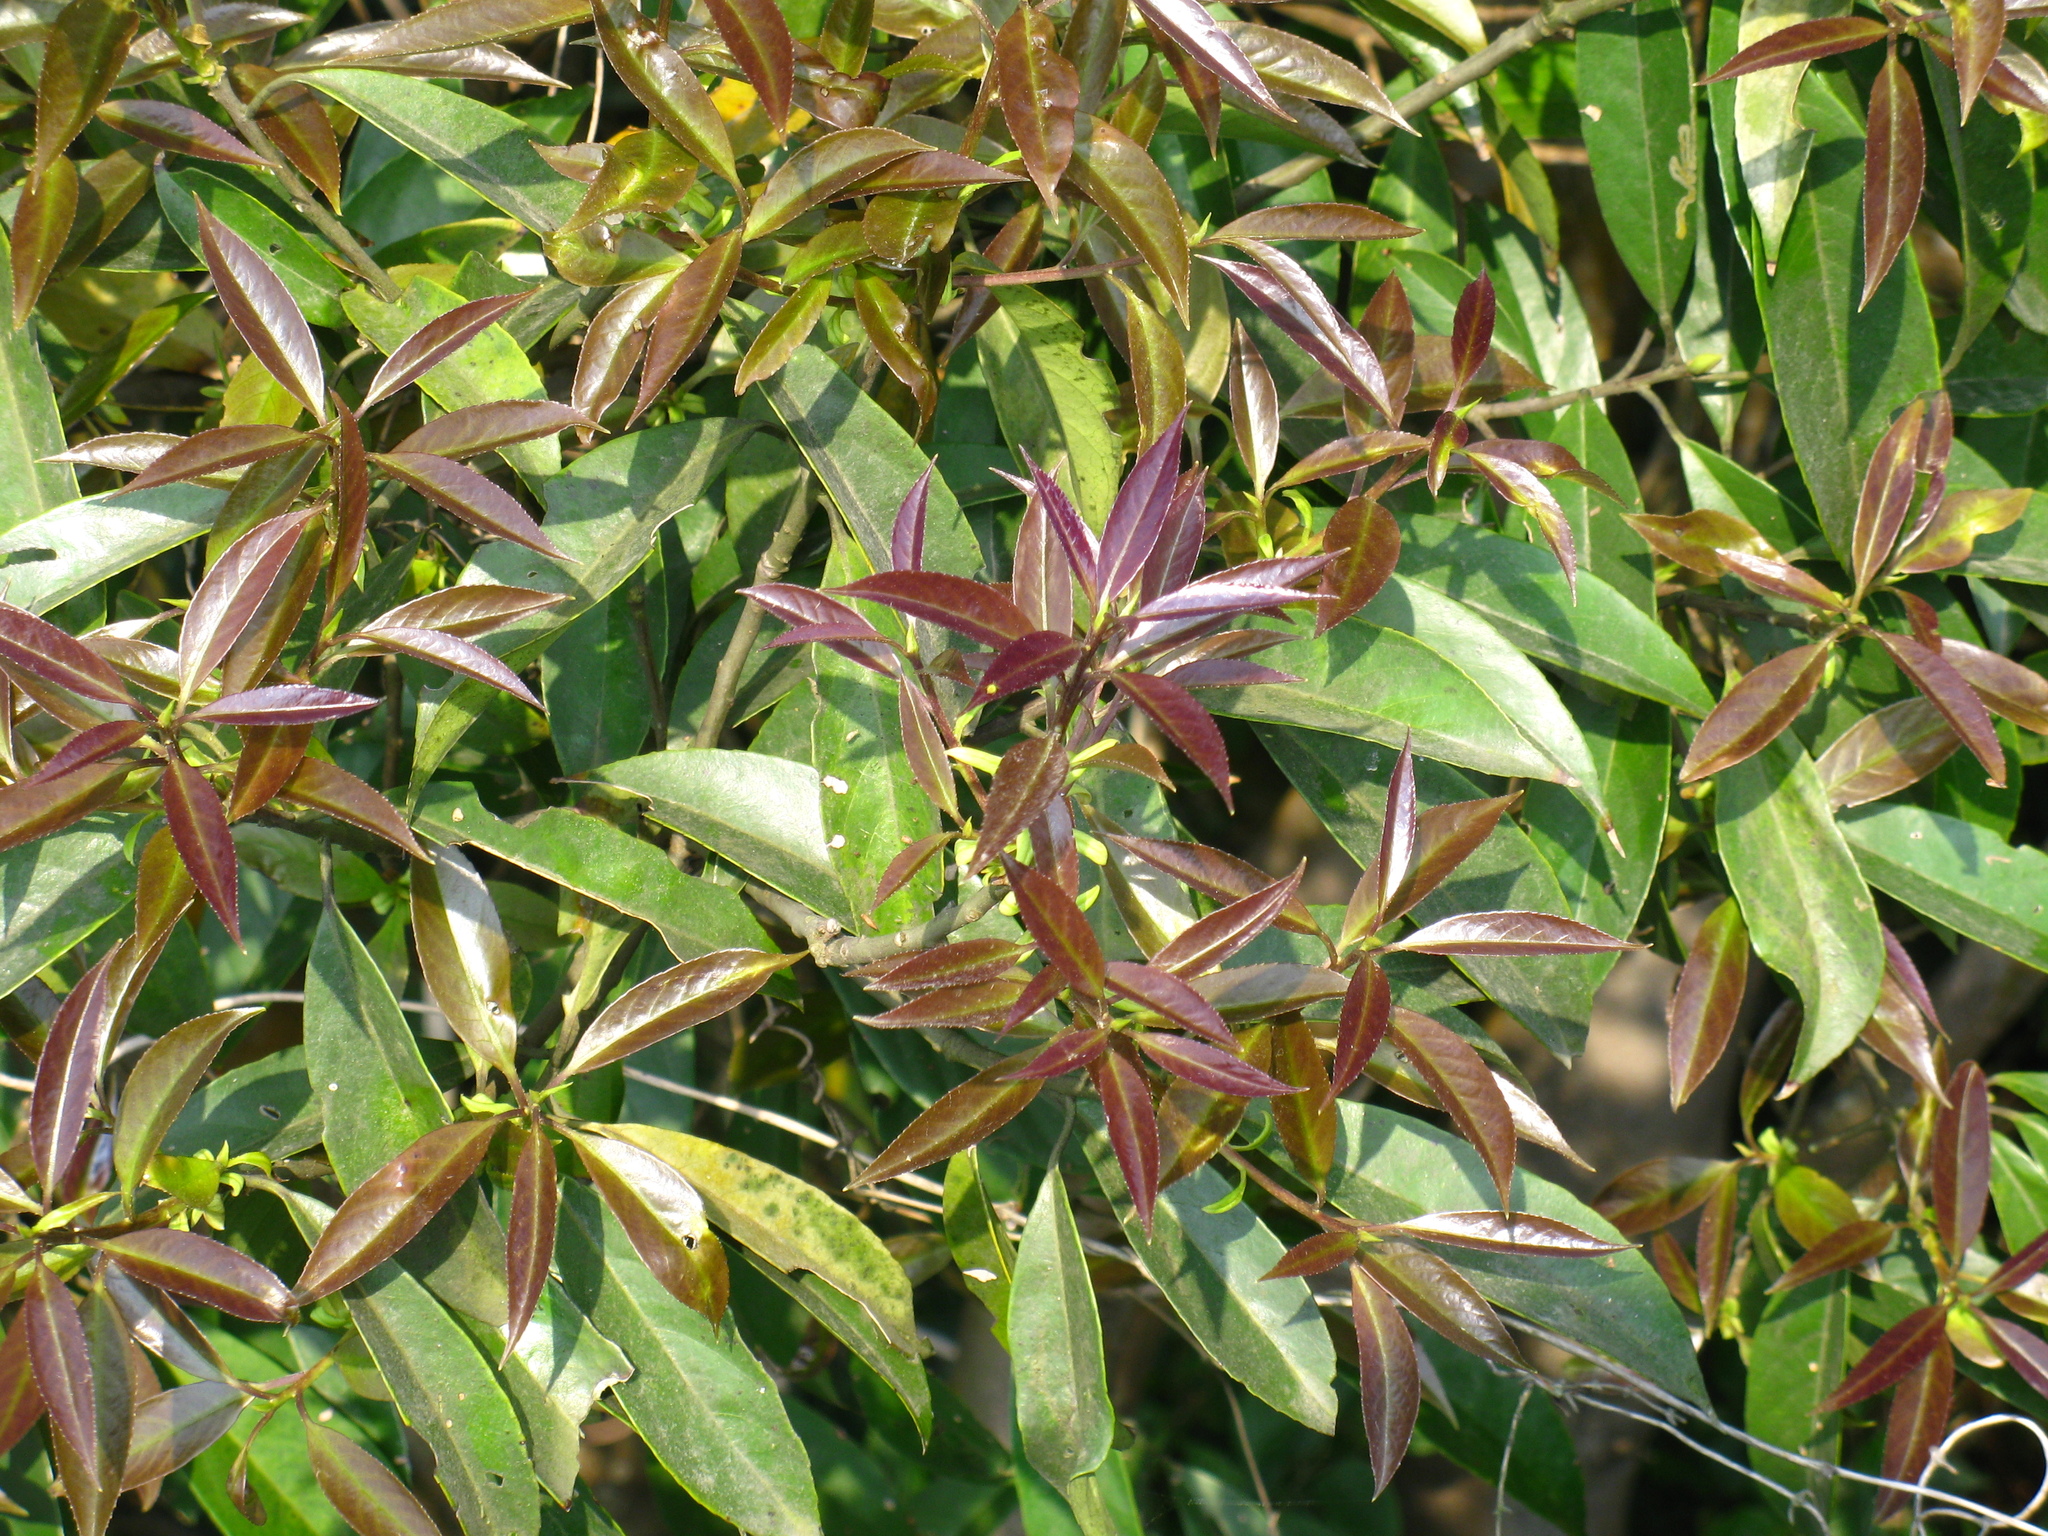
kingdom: Plantae
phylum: Tracheophyta
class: Magnoliopsida
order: Ericales
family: Symplocaceae
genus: Symplocos
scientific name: Symplocos acuminata
